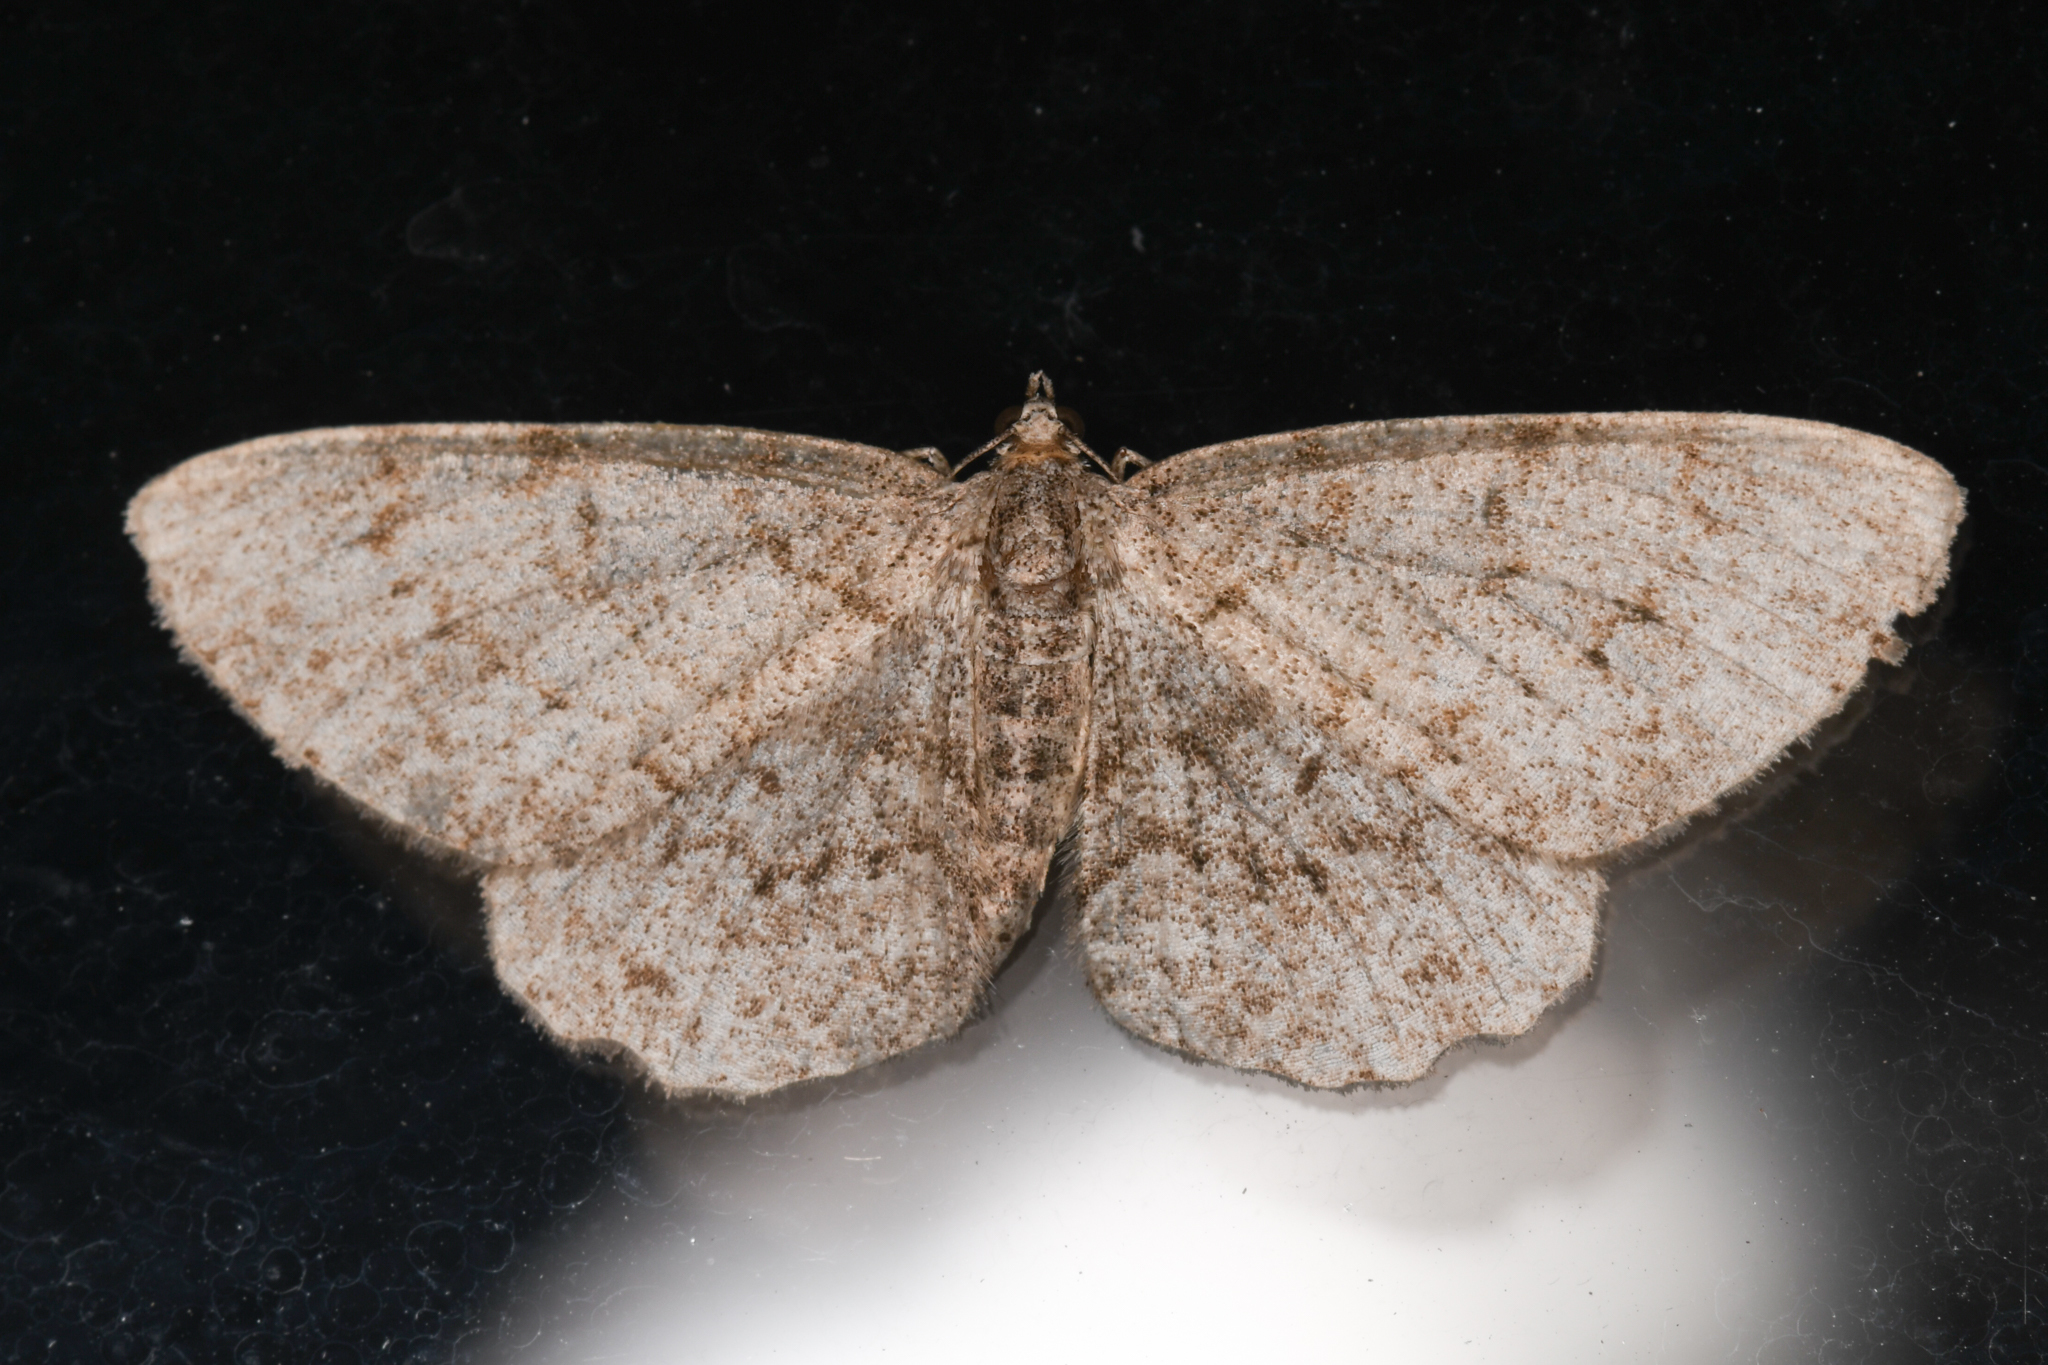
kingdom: Animalia
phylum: Arthropoda
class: Insecta
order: Lepidoptera
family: Geometridae
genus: Protoboarmia
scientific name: Protoboarmia porcelaria
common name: Porcelain gray
